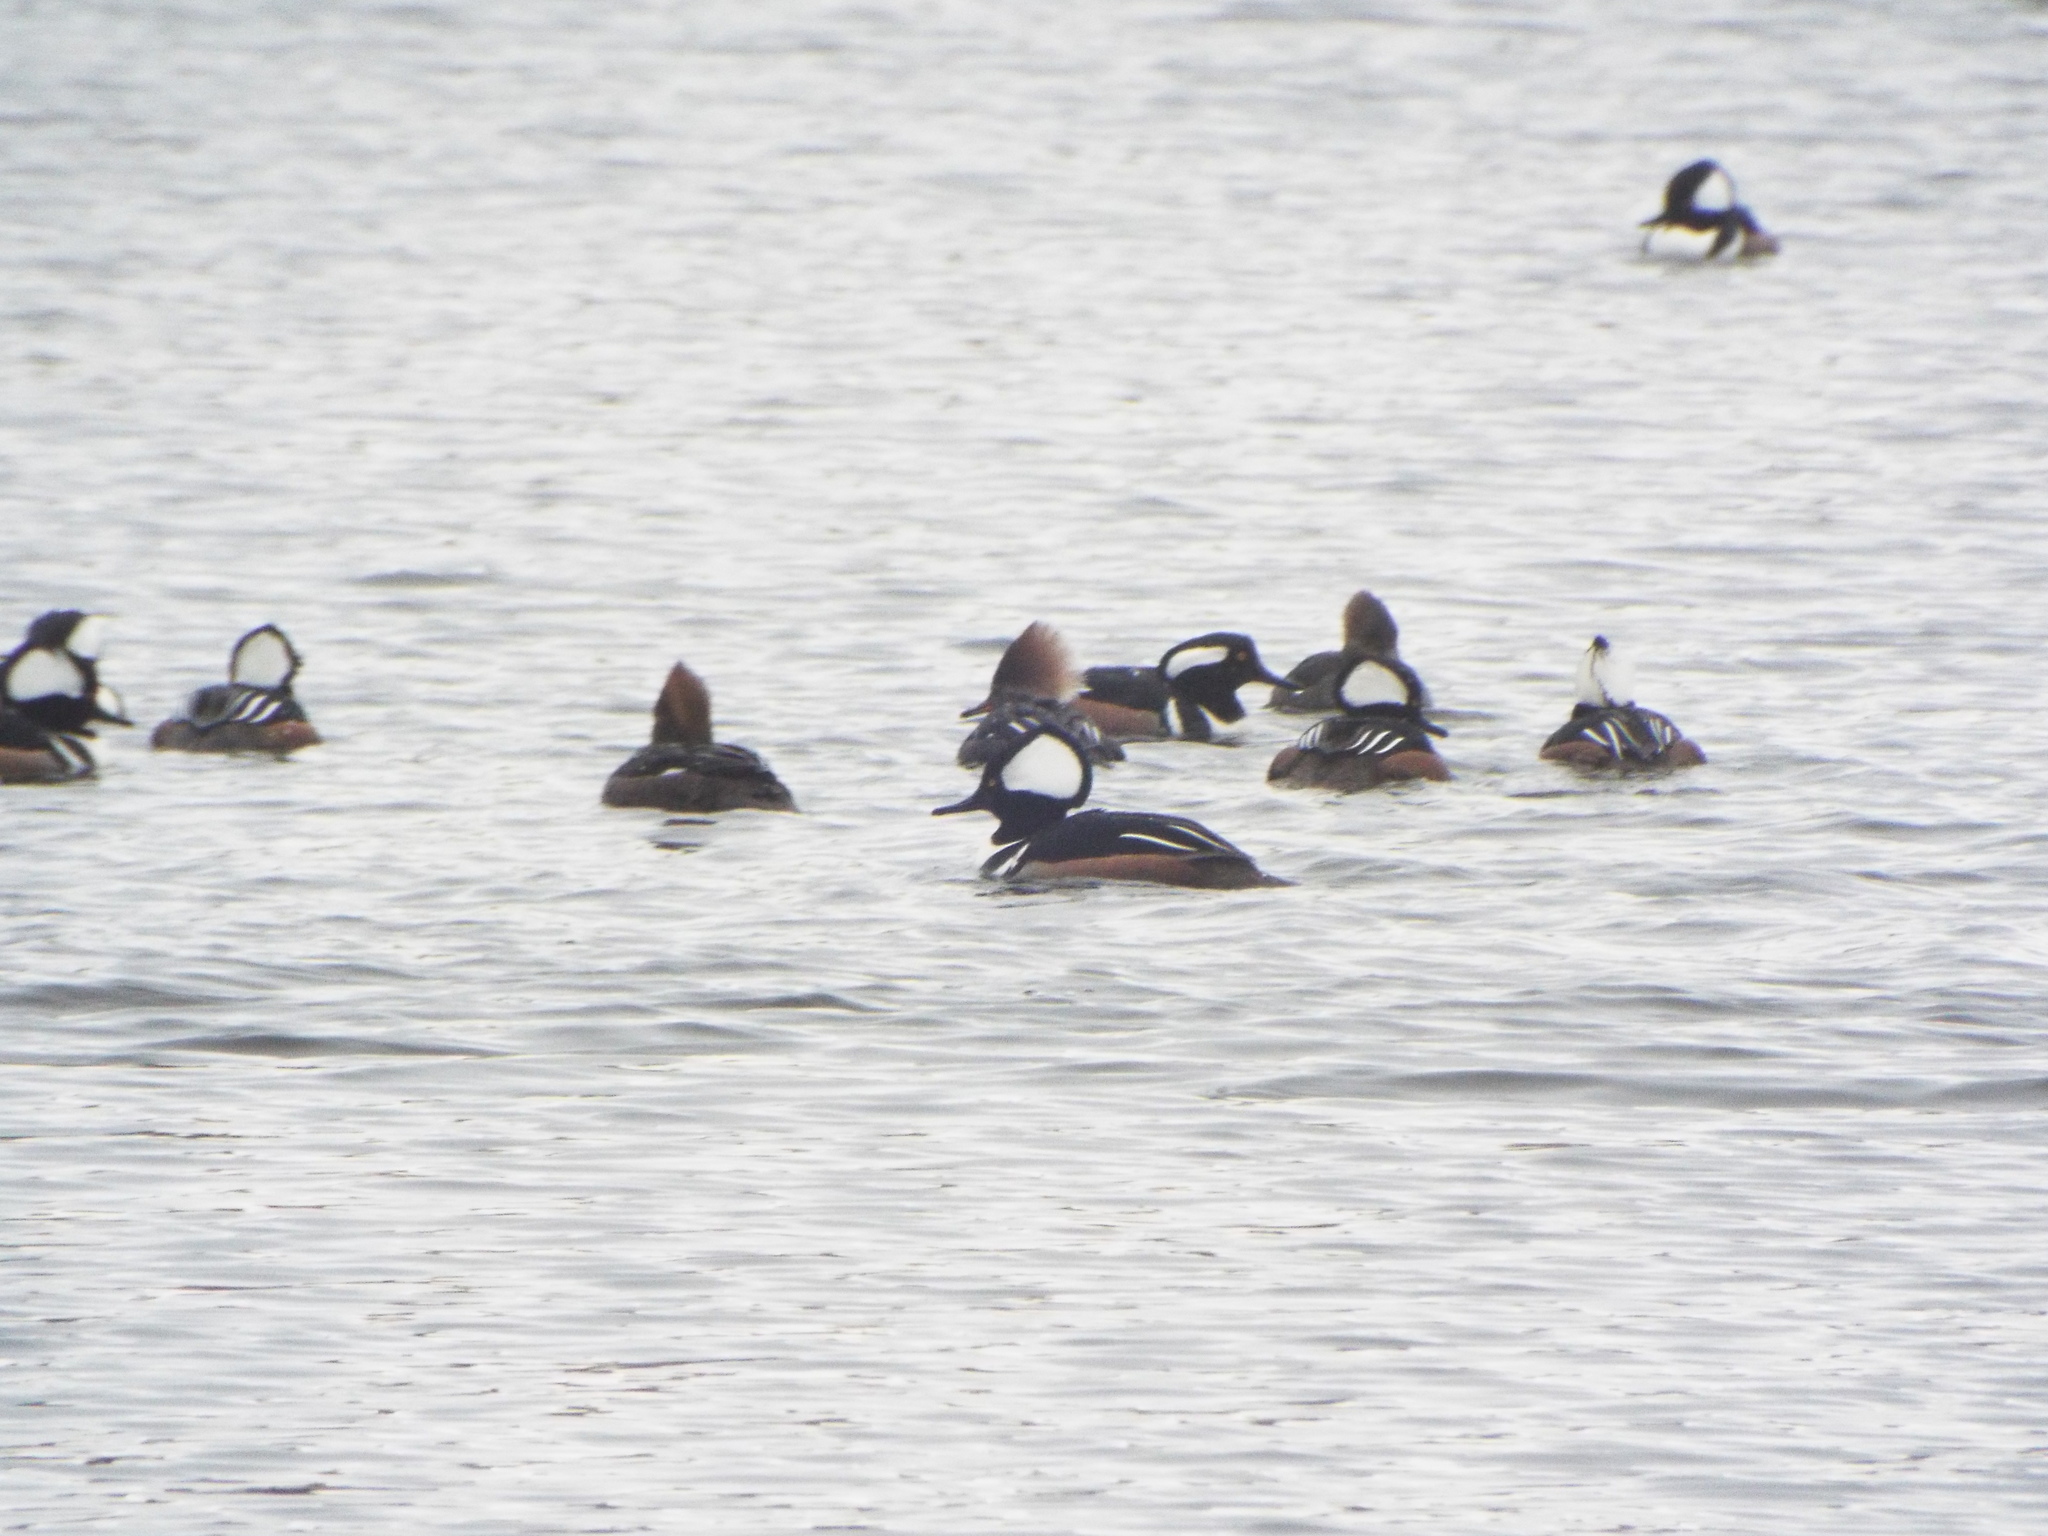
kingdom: Animalia
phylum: Chordata
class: Aves
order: Anseriformes
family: Anatidae
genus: Lophodytes
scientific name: Lophodytes cucullatus
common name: Hooded merganser
